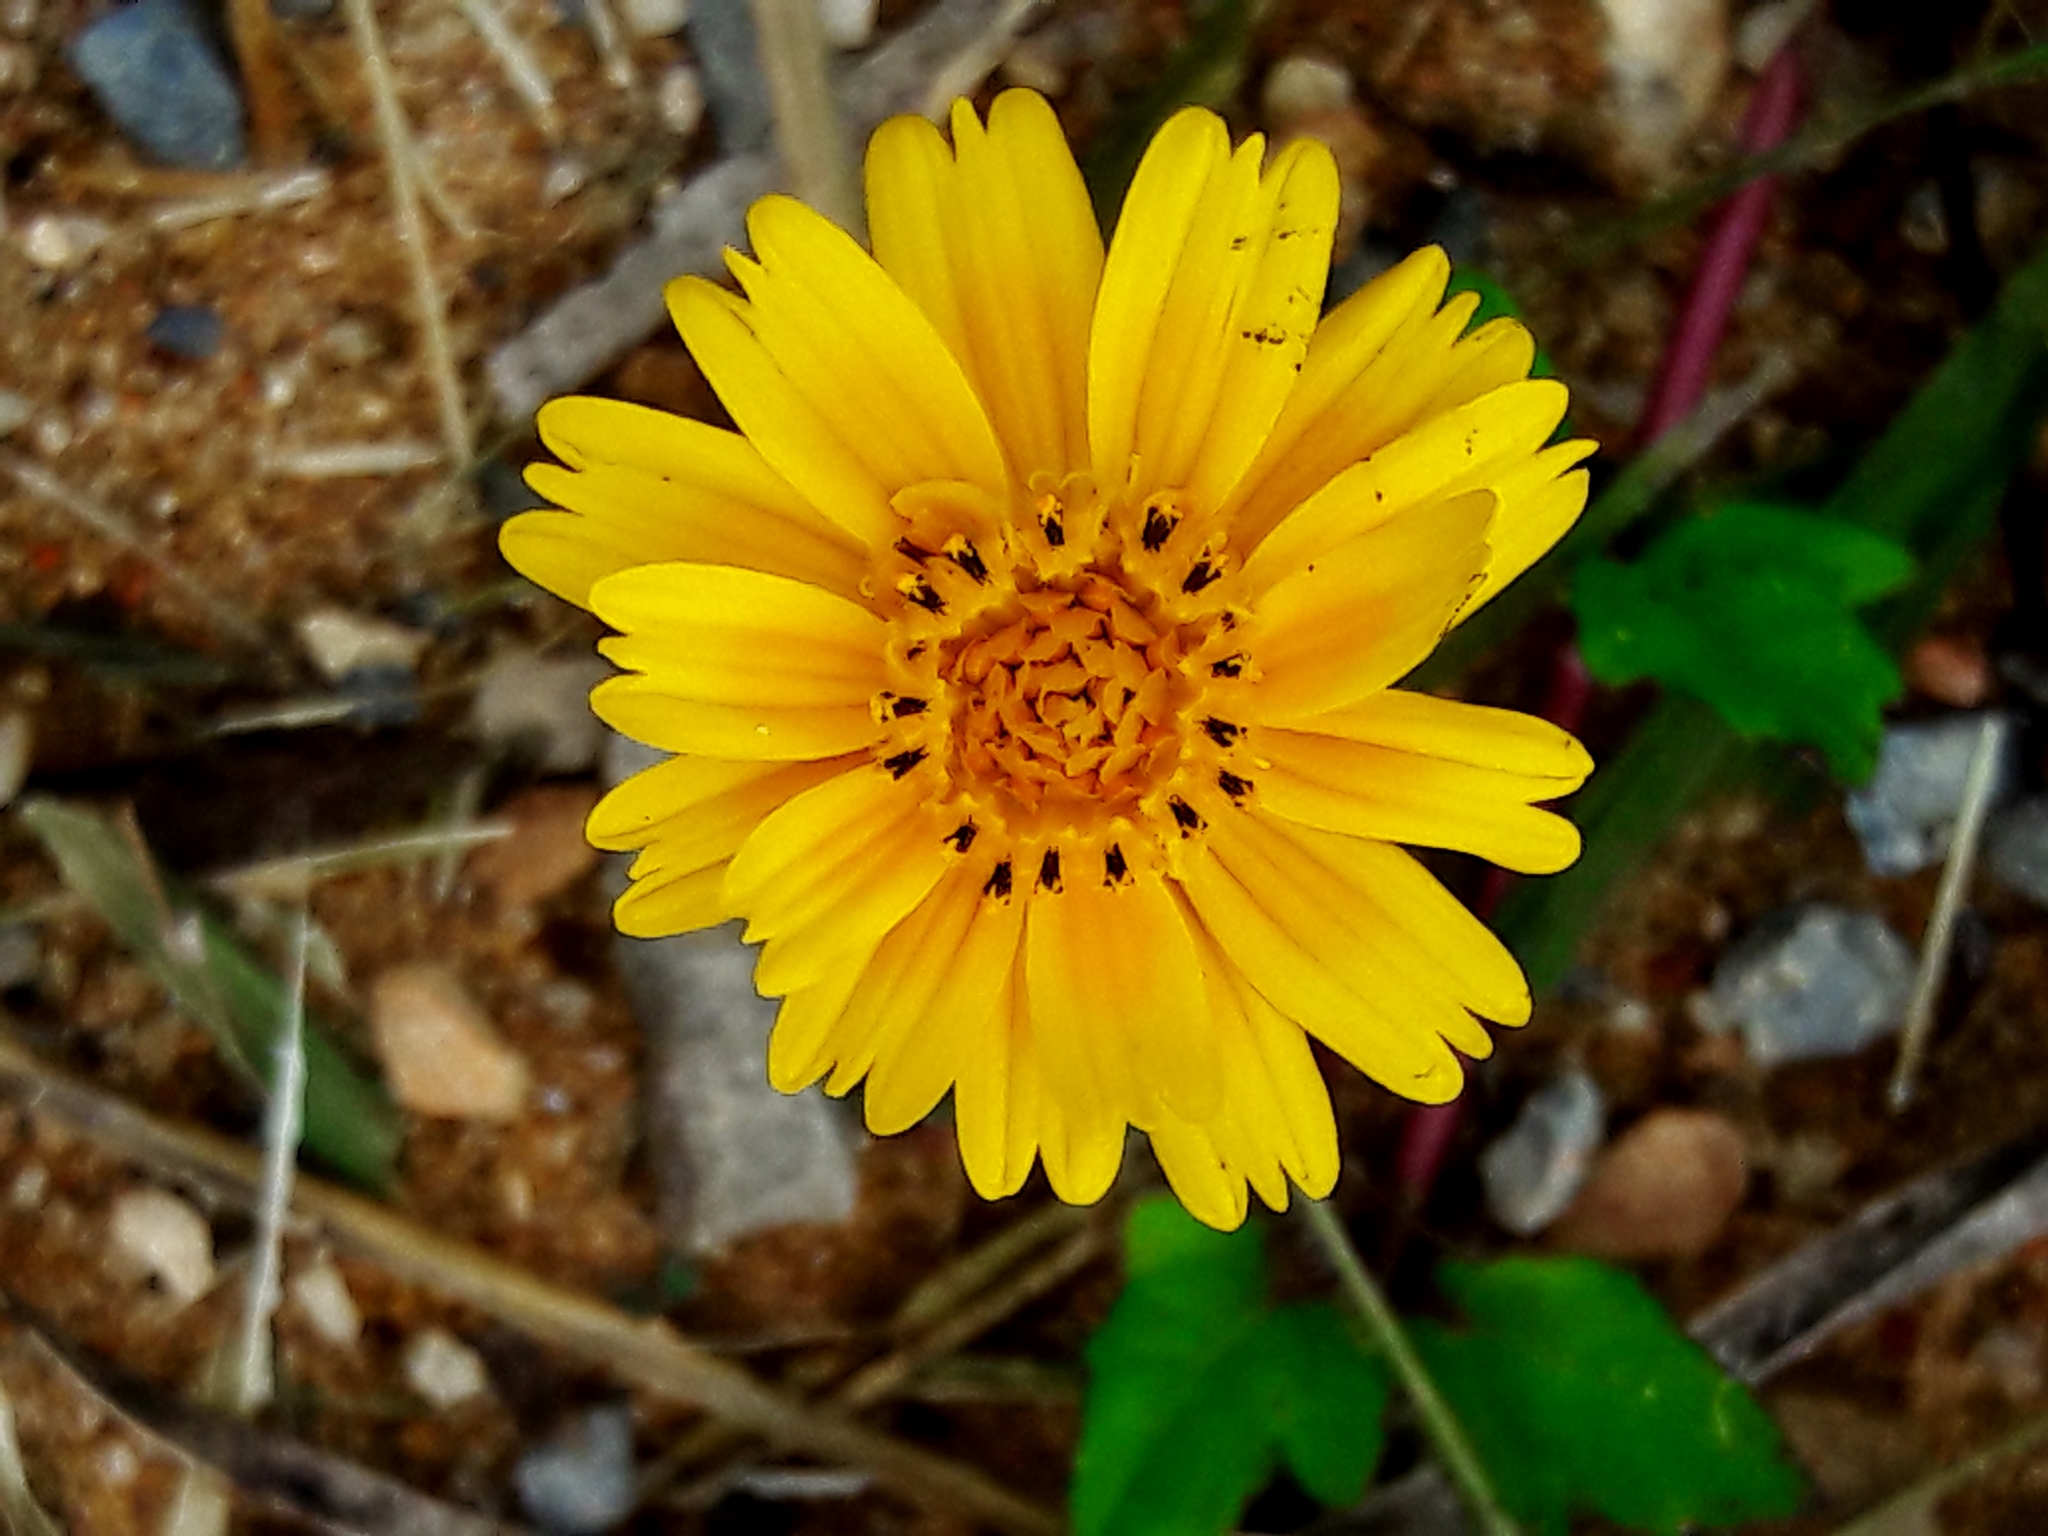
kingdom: Plantae
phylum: Tracheophyta
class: Magnoliopsida
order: Asterales
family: Asteraceae
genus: Sphagneticola
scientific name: Sphagneticola trilobata
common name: Bay biscayne creeping-oxeye
